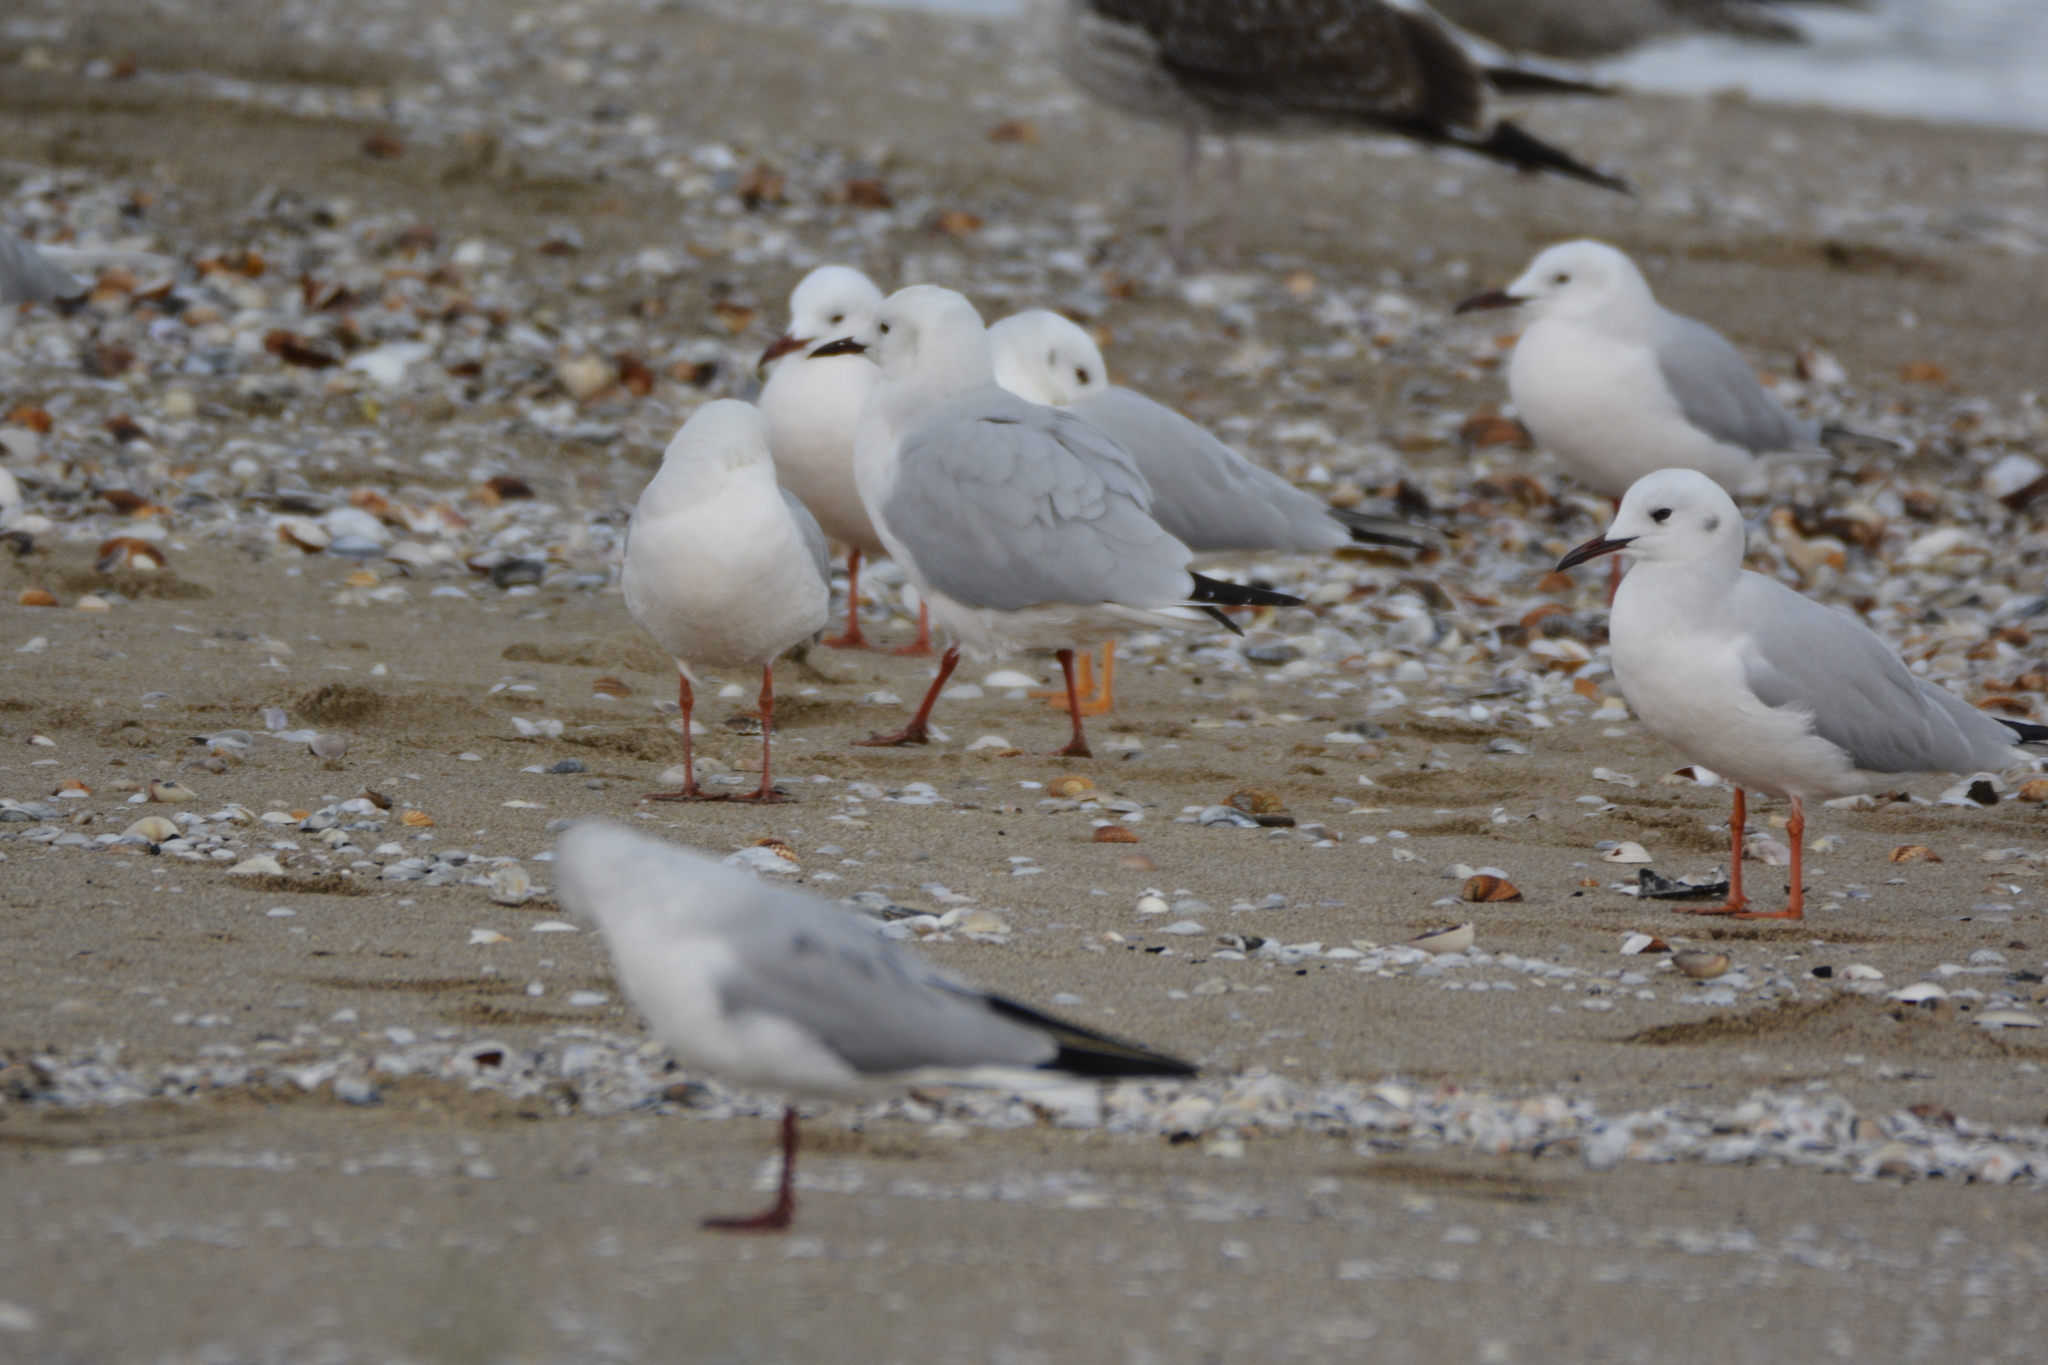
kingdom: Animalia
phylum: Chordata
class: Aves
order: Charadriiformes
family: Laridae
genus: Chroicocephalus
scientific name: Chroicocephalus genei
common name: Slender-billed gull
